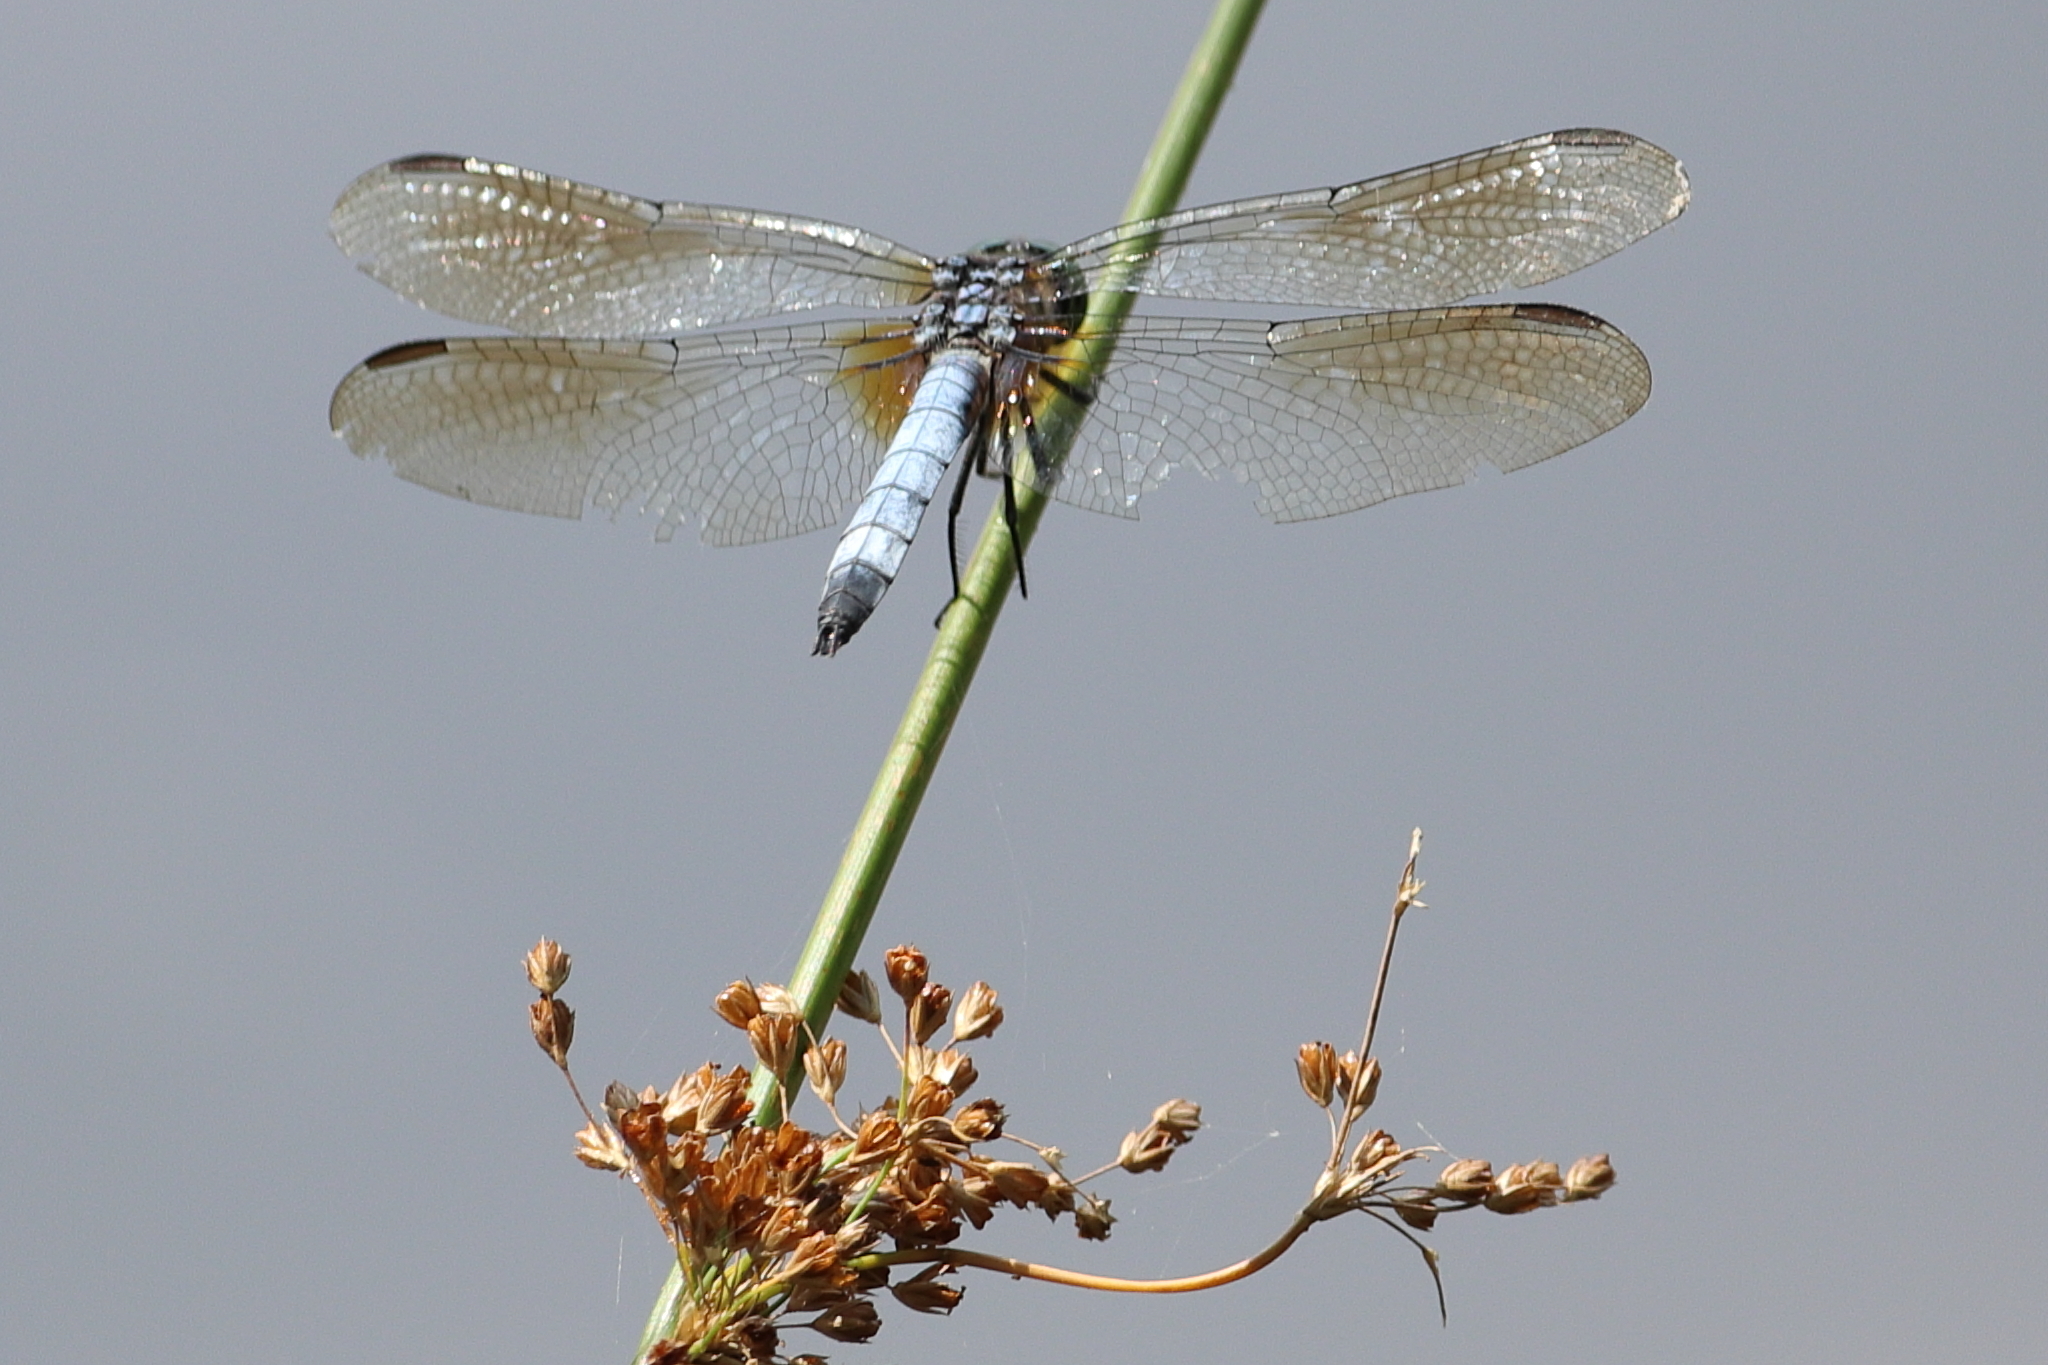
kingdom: Animalia
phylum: Arthropoda
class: Insecta
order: Odonata
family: Libellulidae
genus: Pachydiplax
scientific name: Pachydiplax longipennis
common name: Blue dasher
